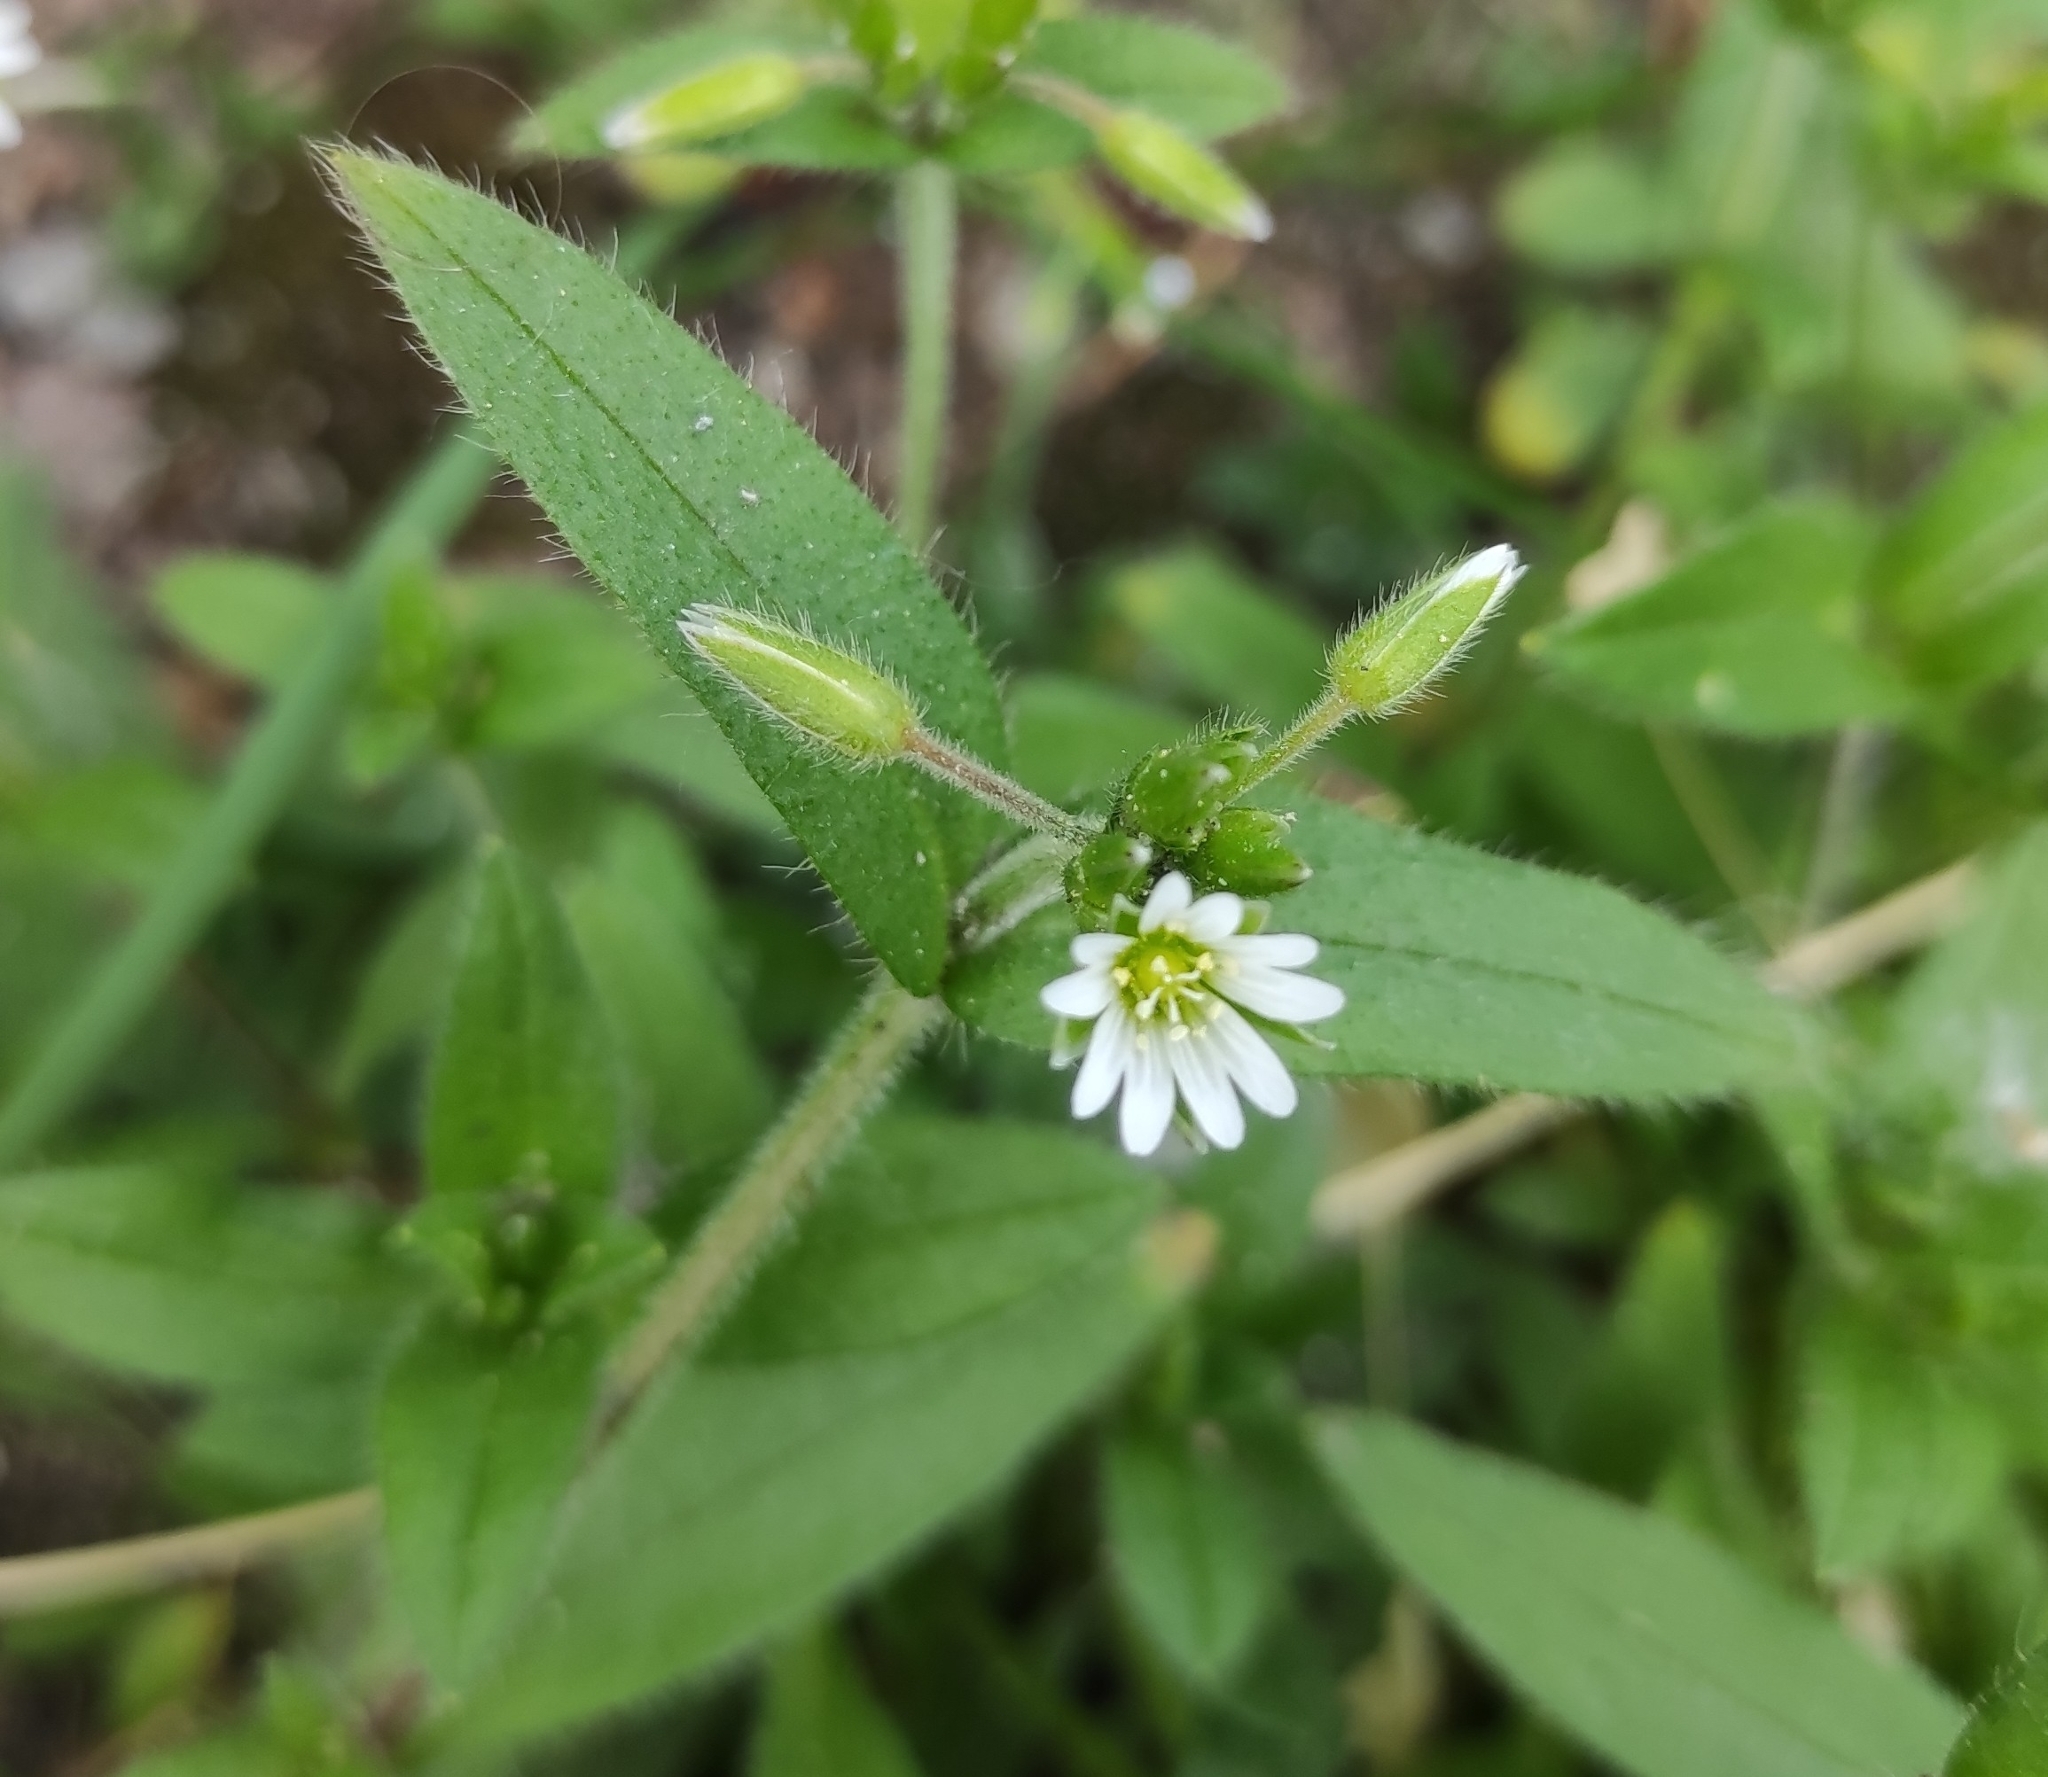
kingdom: Plantae
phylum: Tracheophyta
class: Magnoliopsida
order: Caryophyllales
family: Caryophyllaceae
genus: Cerastium
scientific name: Cerastium holosteoides
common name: Big chickweed
